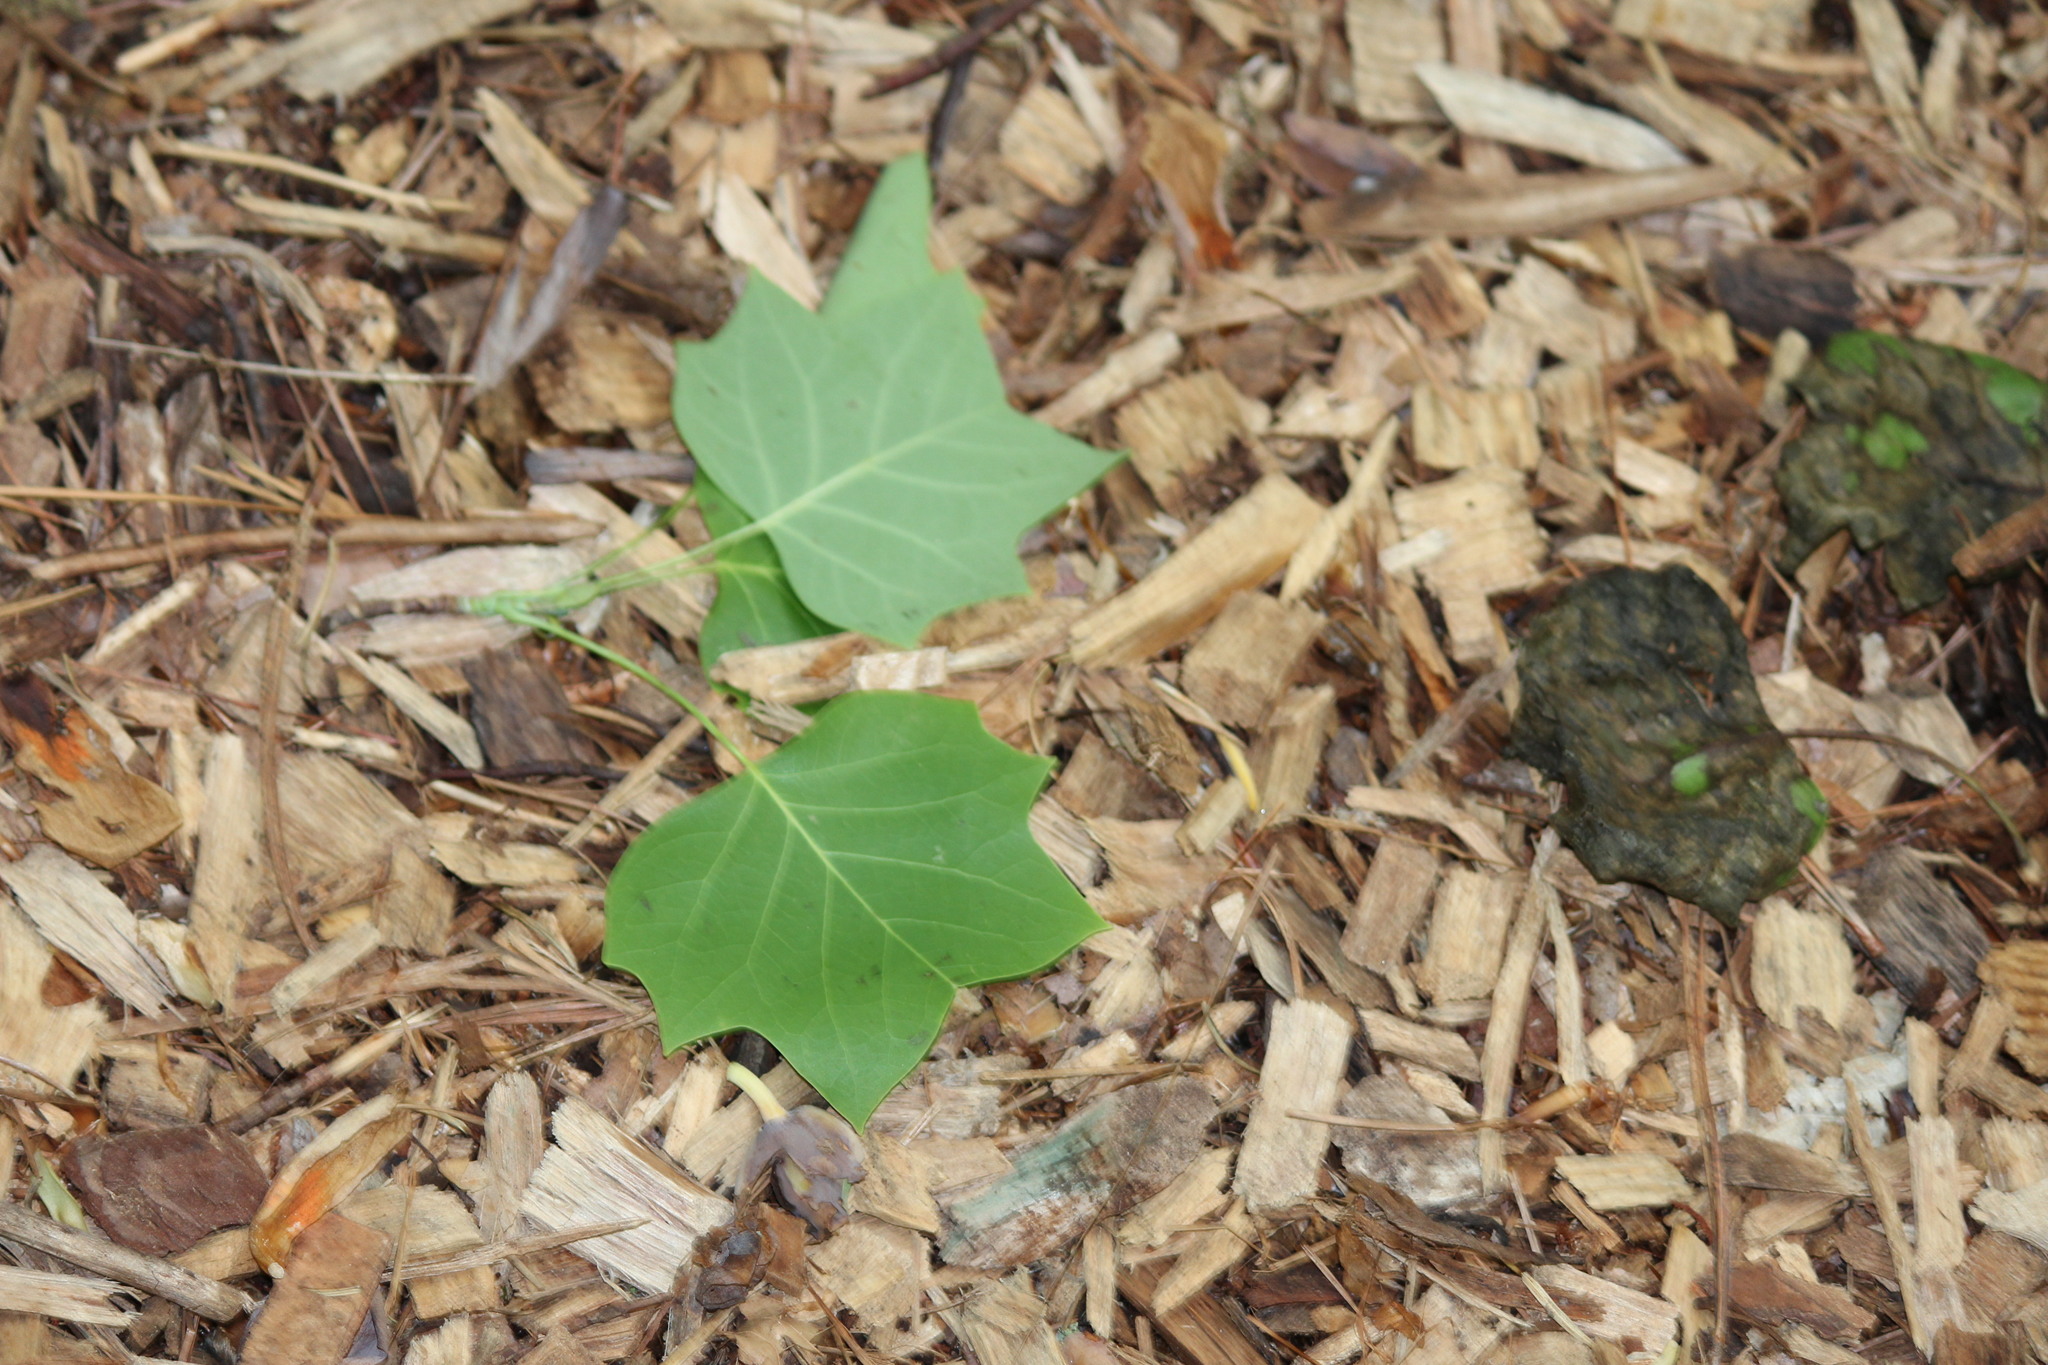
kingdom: Plantae
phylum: Tracheophyta
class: Magnoliopsida
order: Magnoliales
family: Magnoliaceae
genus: Liriodendron
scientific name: Liriodendron tulipifera
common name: Tulip tree
